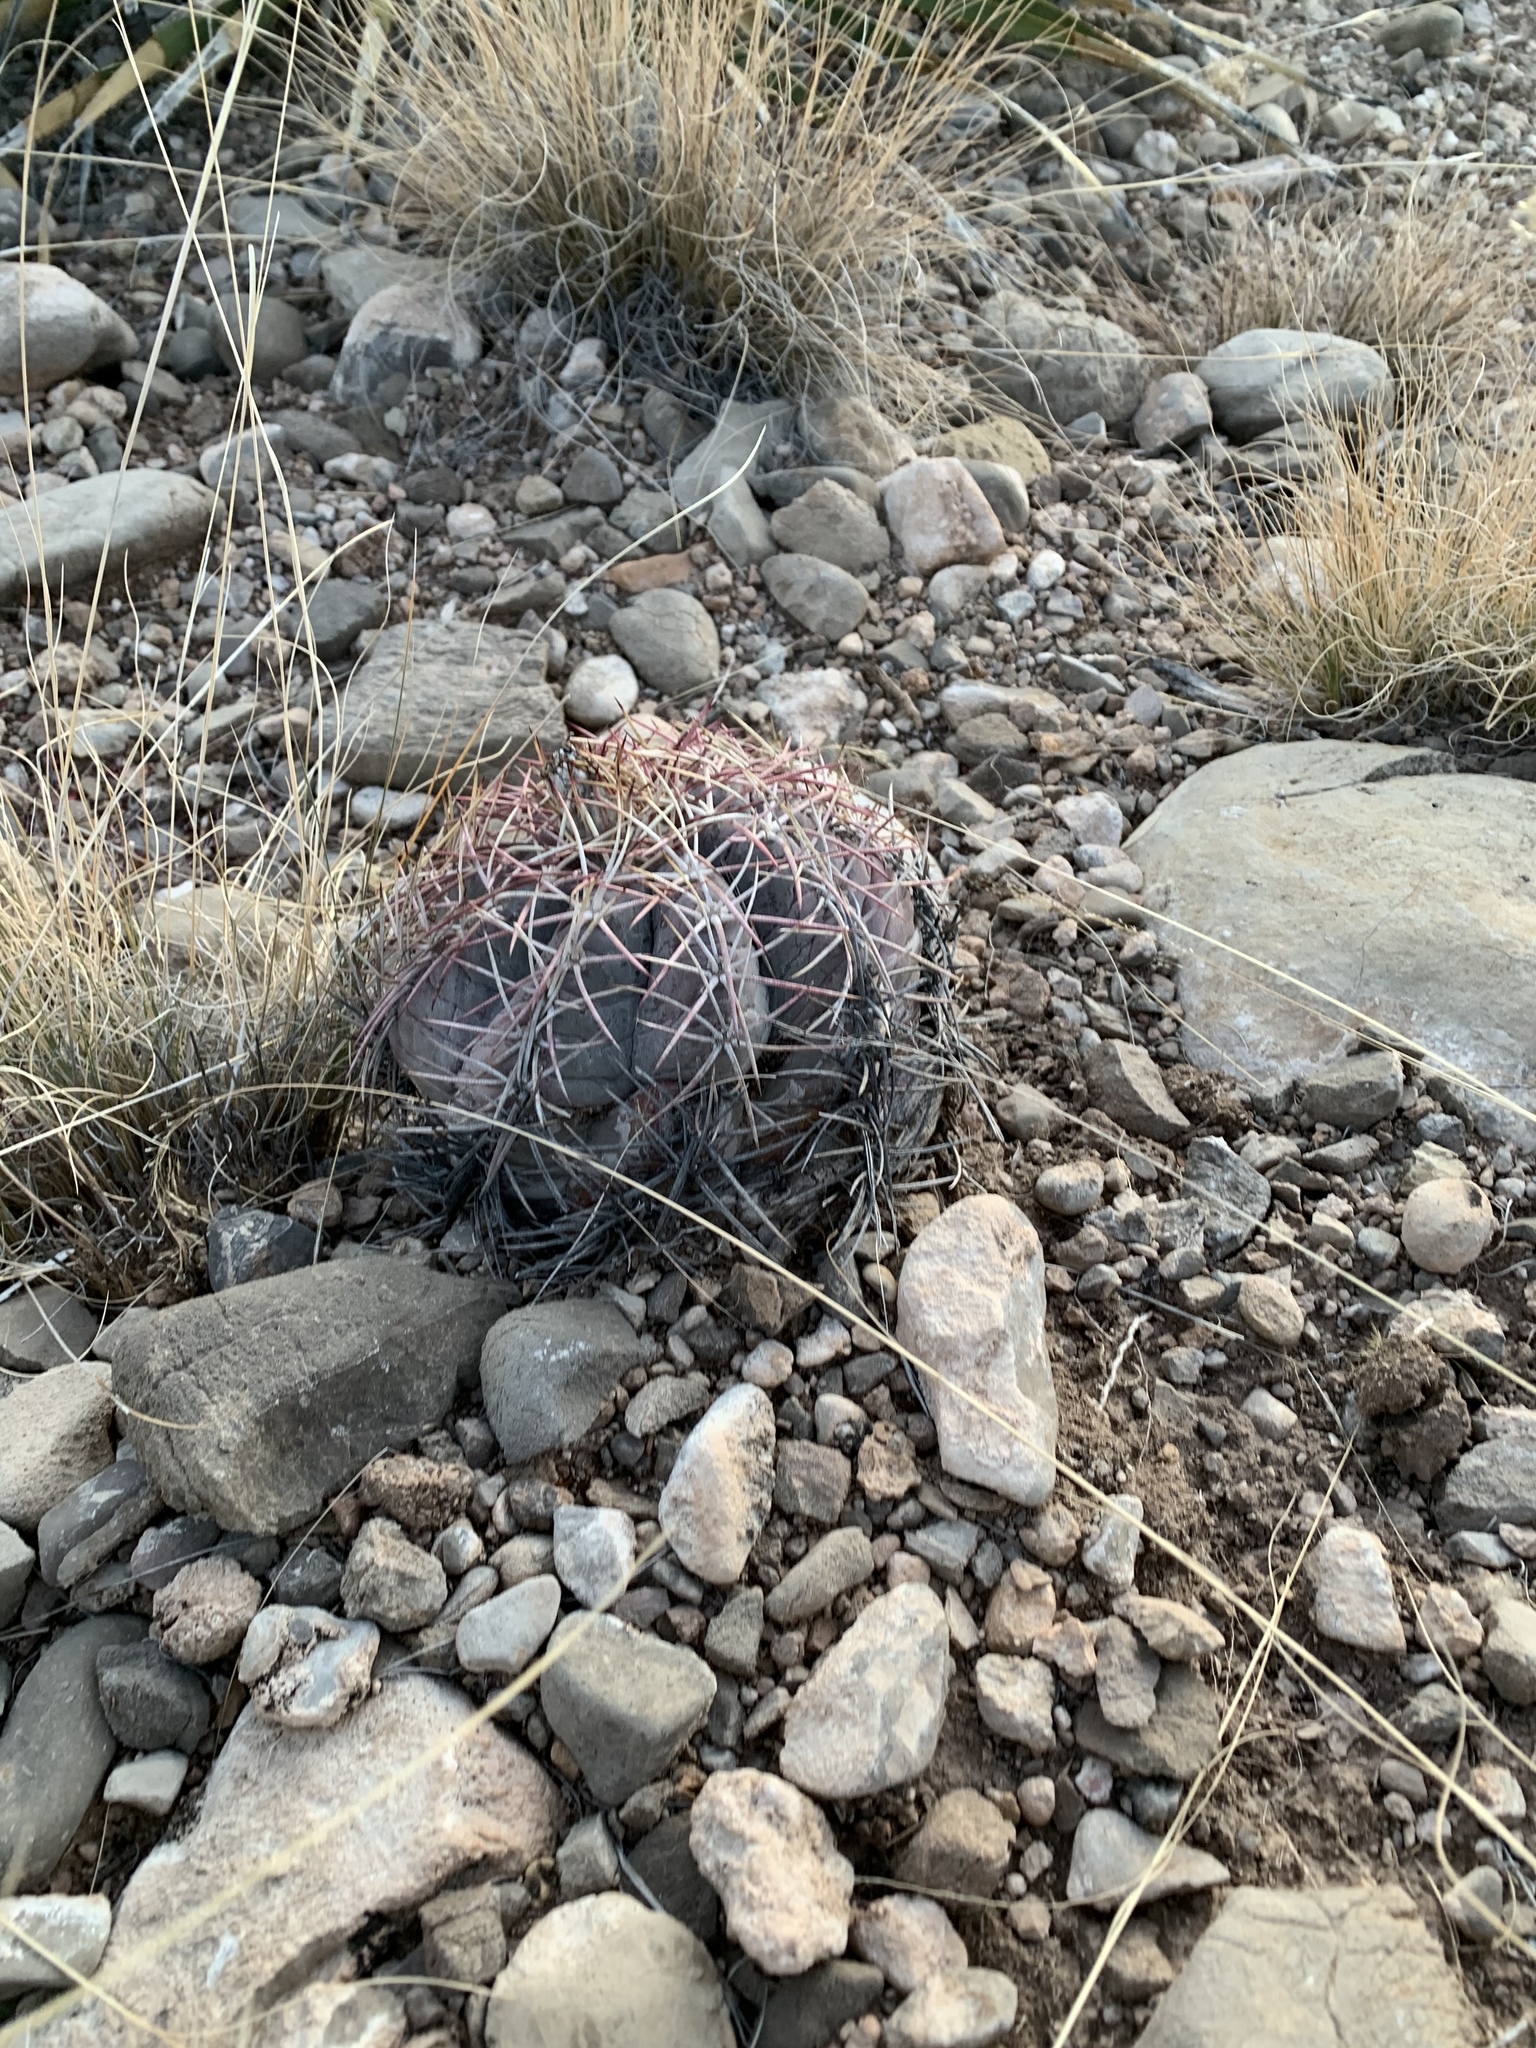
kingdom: Plantae
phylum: Tracheophyta
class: Magnoliopsida
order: Caryophyllales
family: Cactaceae
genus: Echinocactus
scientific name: Echinocactus horizonthalonius
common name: Devilshead
